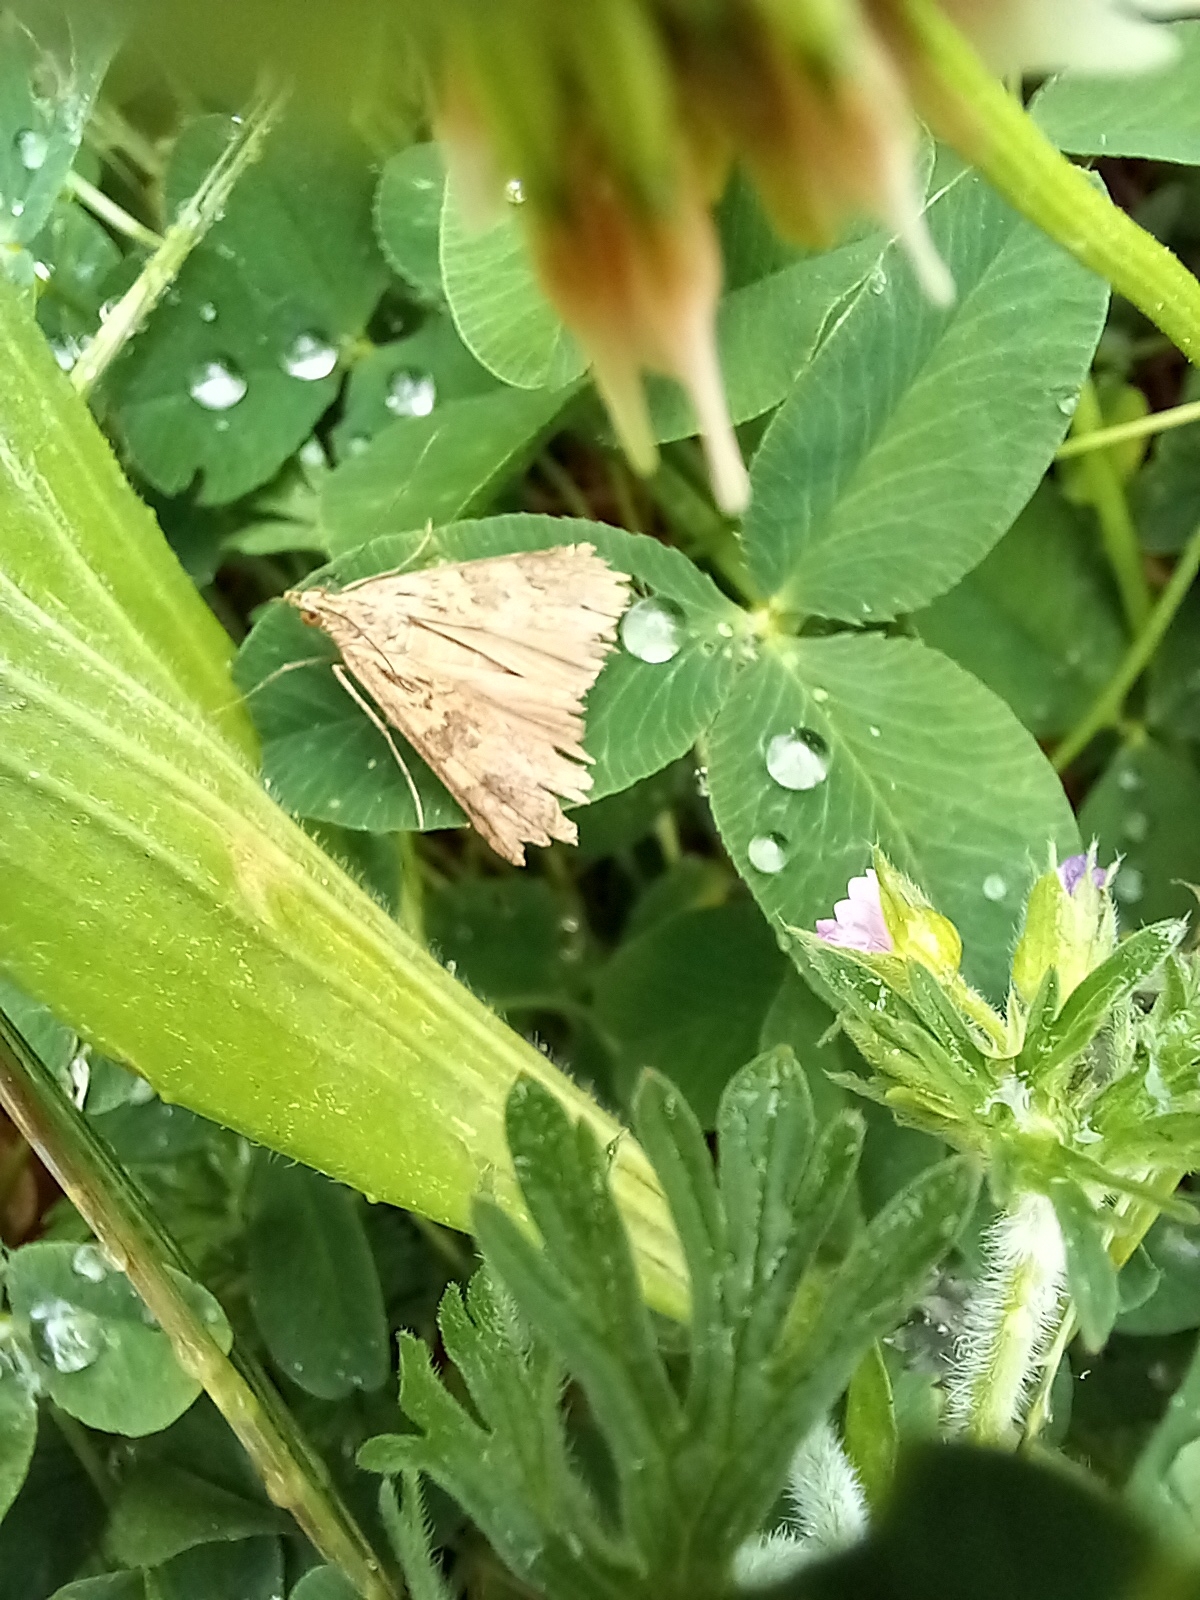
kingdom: Animalia
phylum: Arthropoda
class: Insecta
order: Lepidoptera
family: Crambidae
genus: Nomophila
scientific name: Nomophila noctuella
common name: Rush veneer
